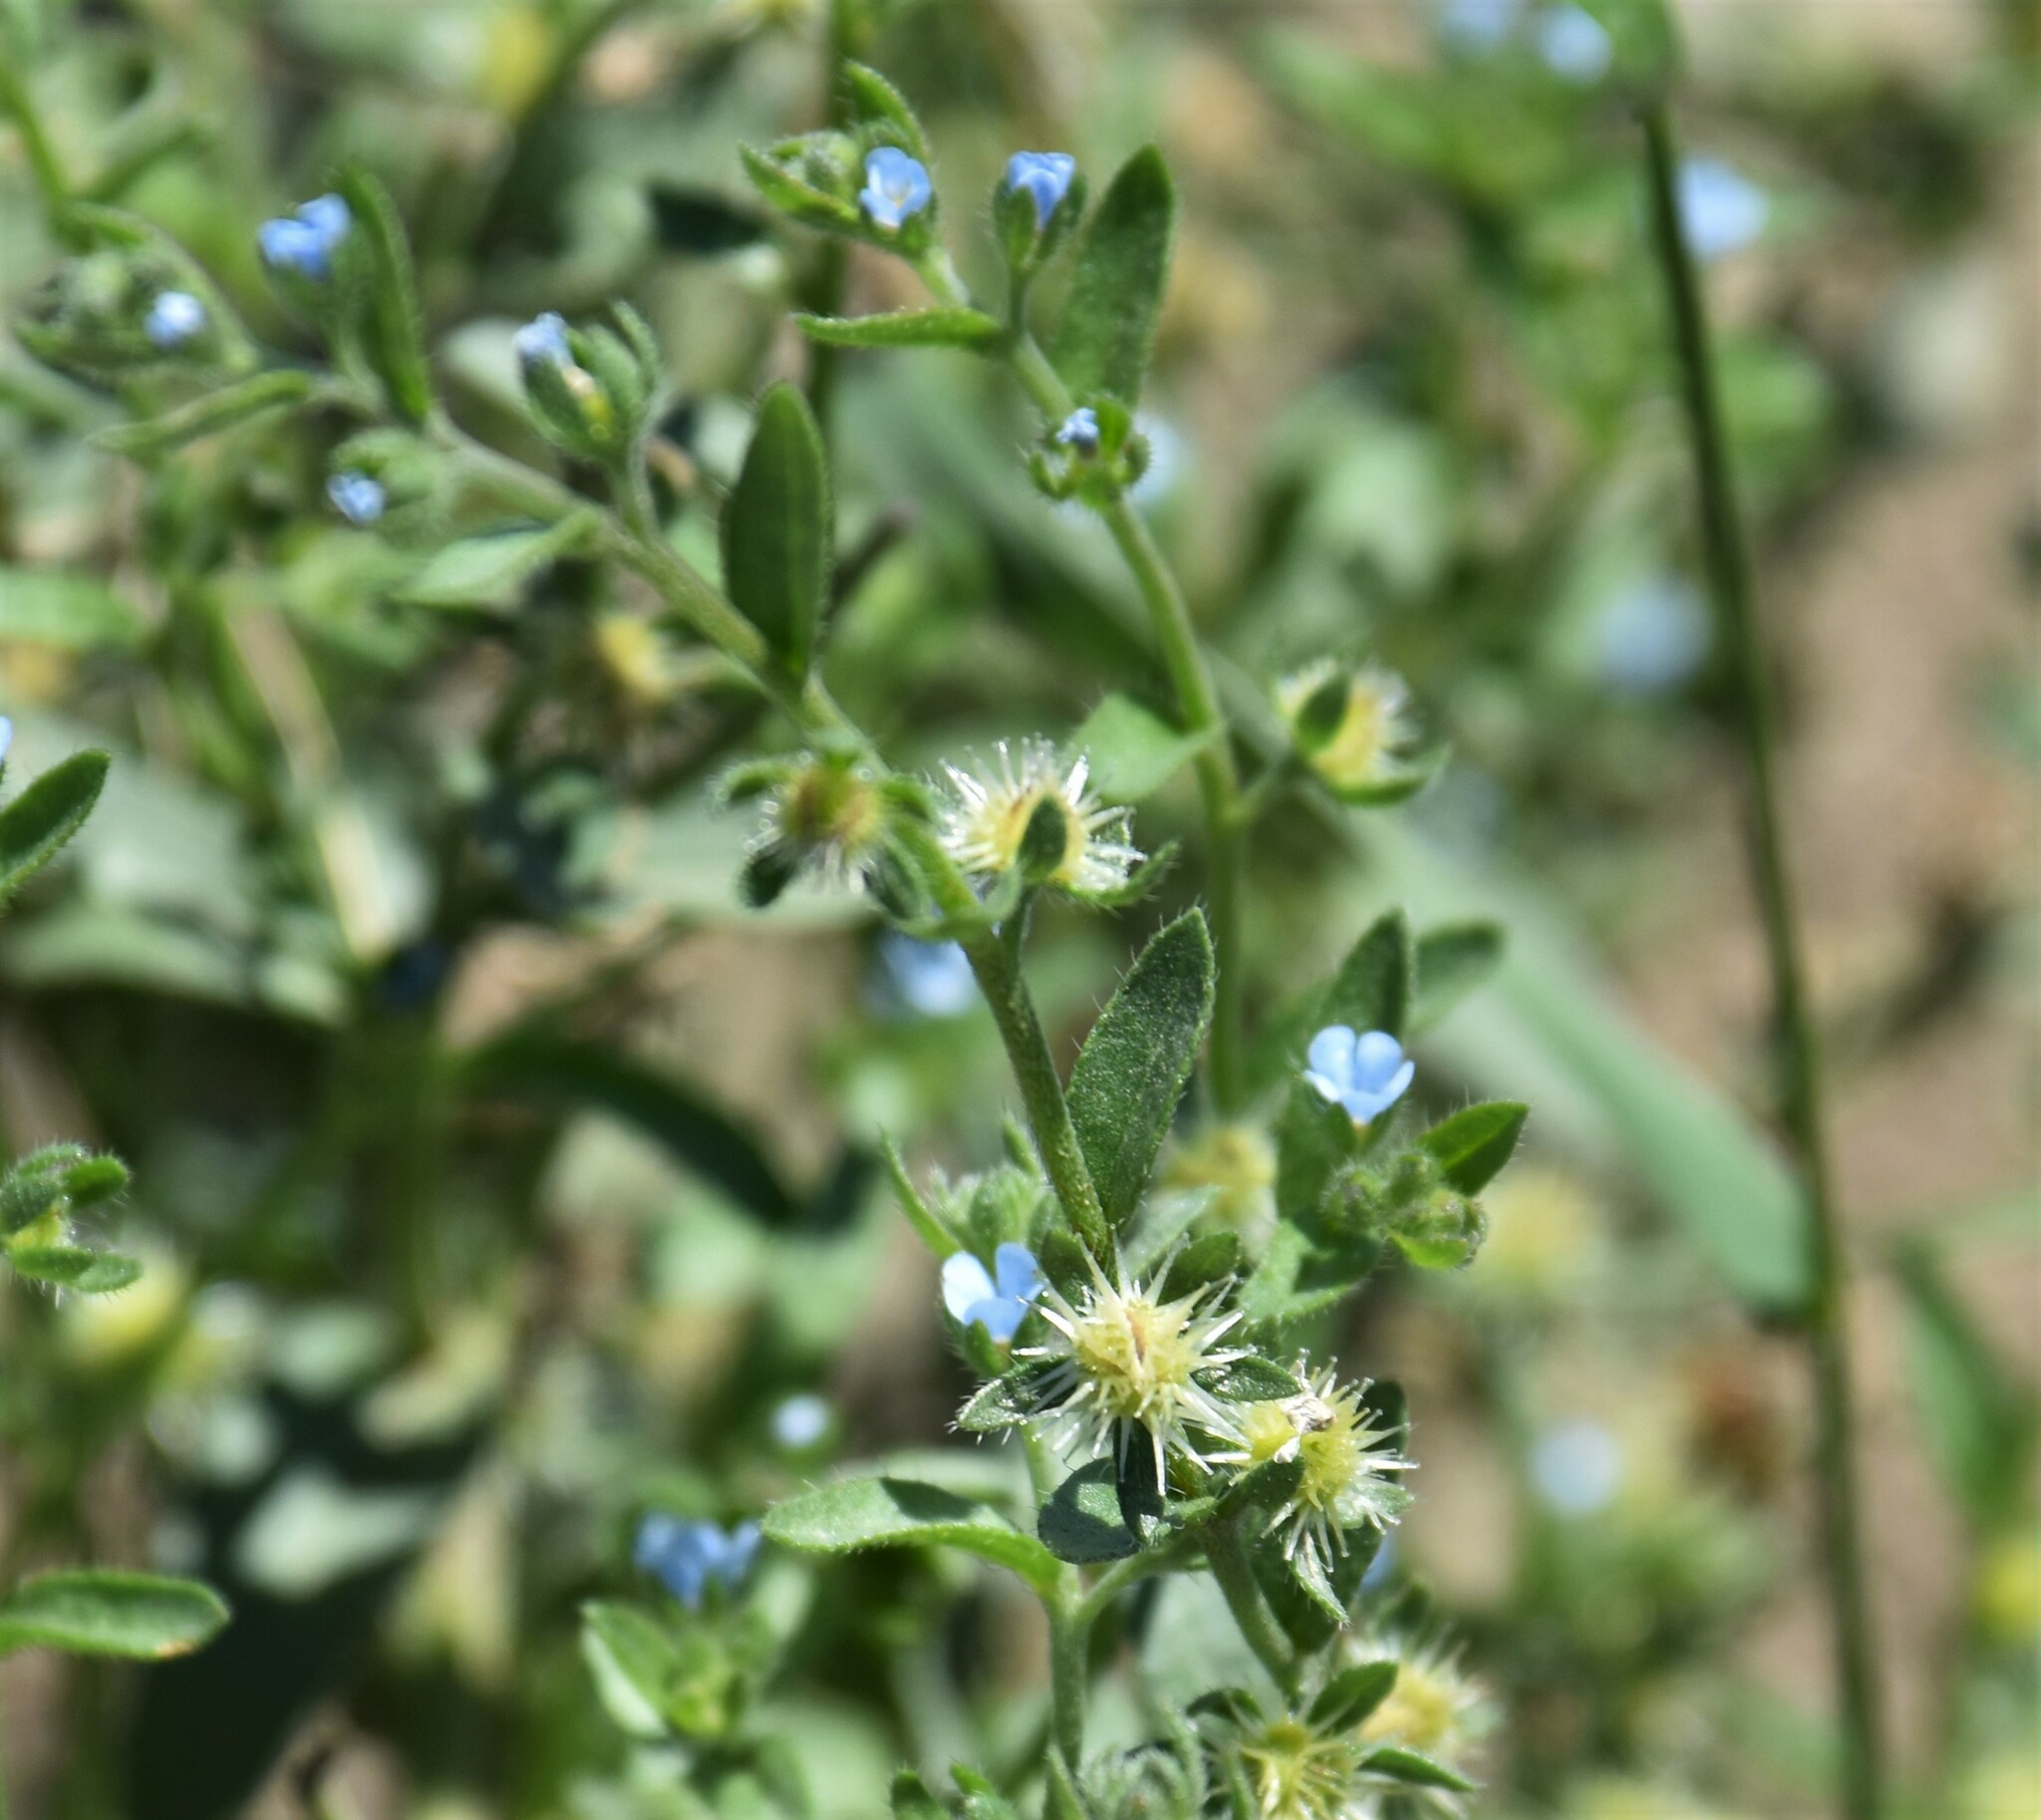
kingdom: Plantae
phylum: Tracheophyta
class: Magnoliopsida
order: Boraginales
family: Boraginaceae
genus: Lappula
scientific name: Lappula occidentalis
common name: Western stickseed
